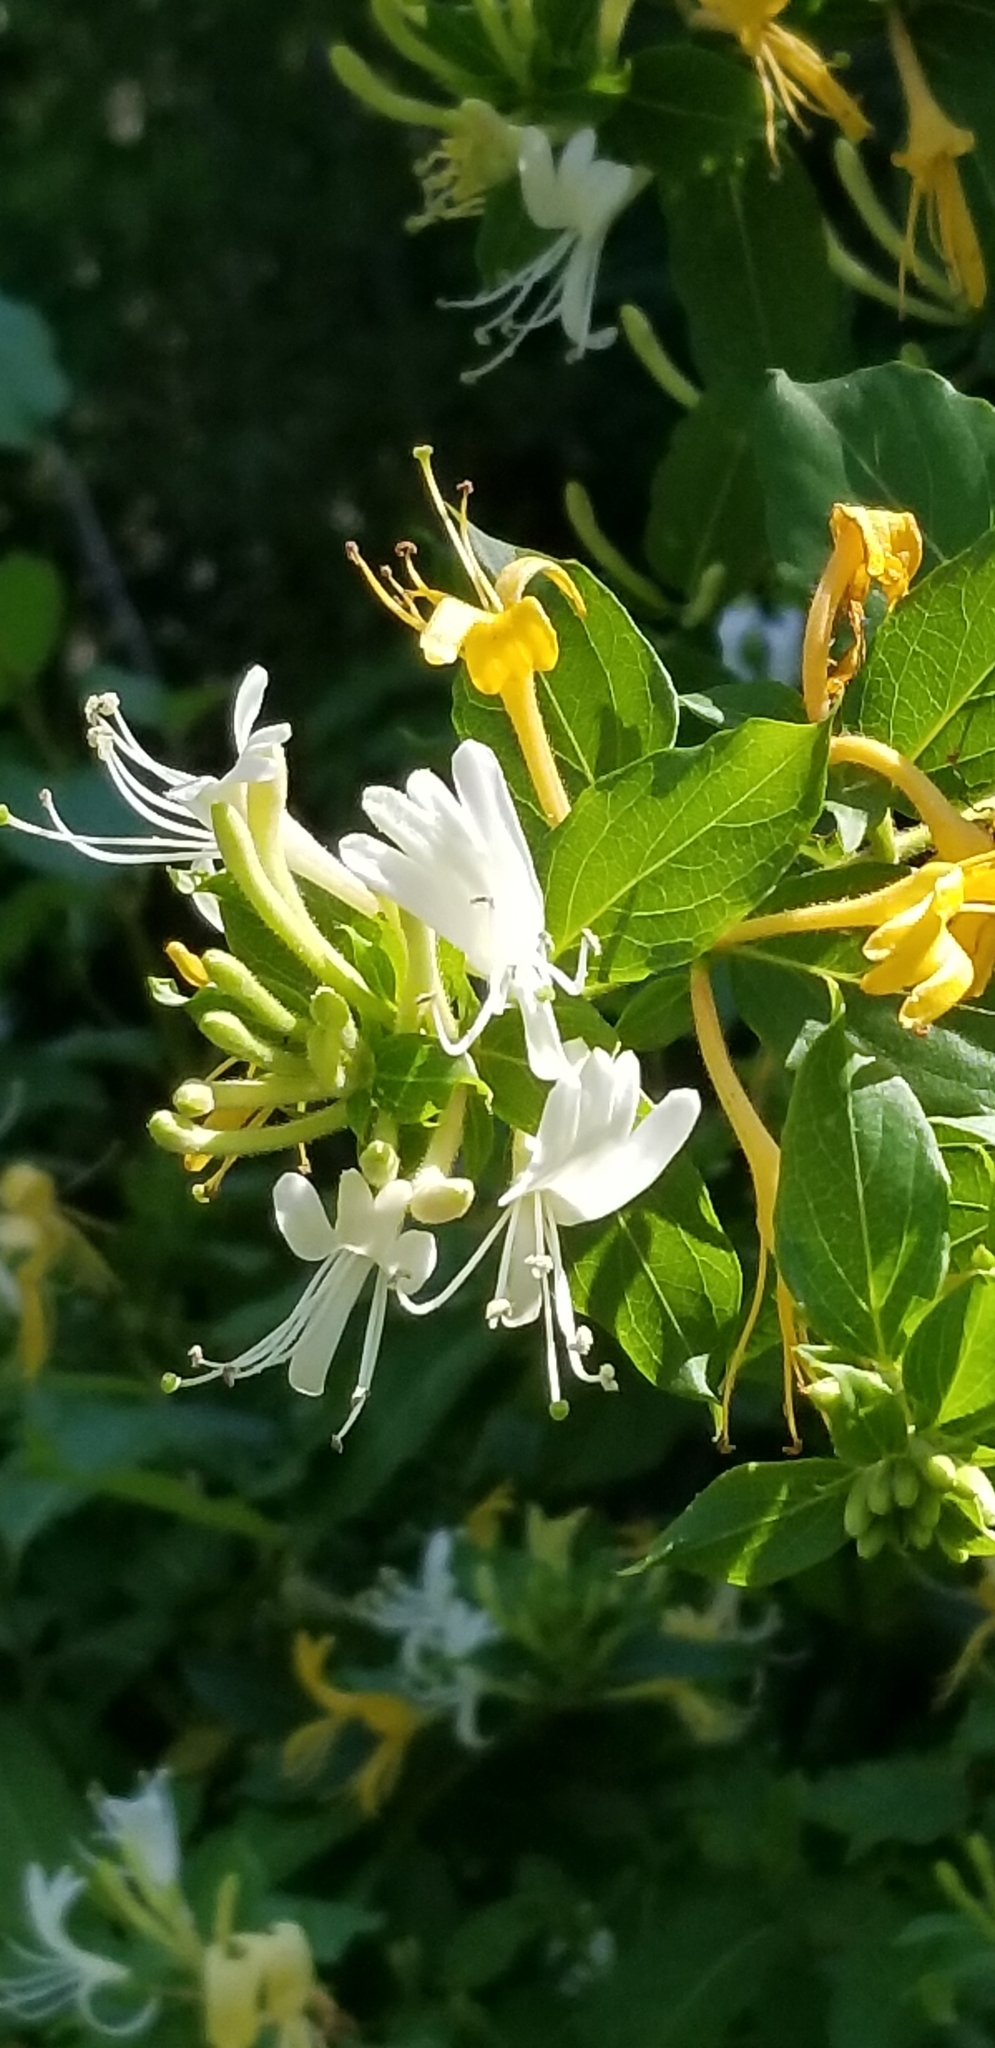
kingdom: Plantae
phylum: Tracheophyta
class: Magnoliopsida
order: Dipsacales
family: Caprifoliaceae
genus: Lonicera
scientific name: Lonicera japonica
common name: Japanese honeysuckle
